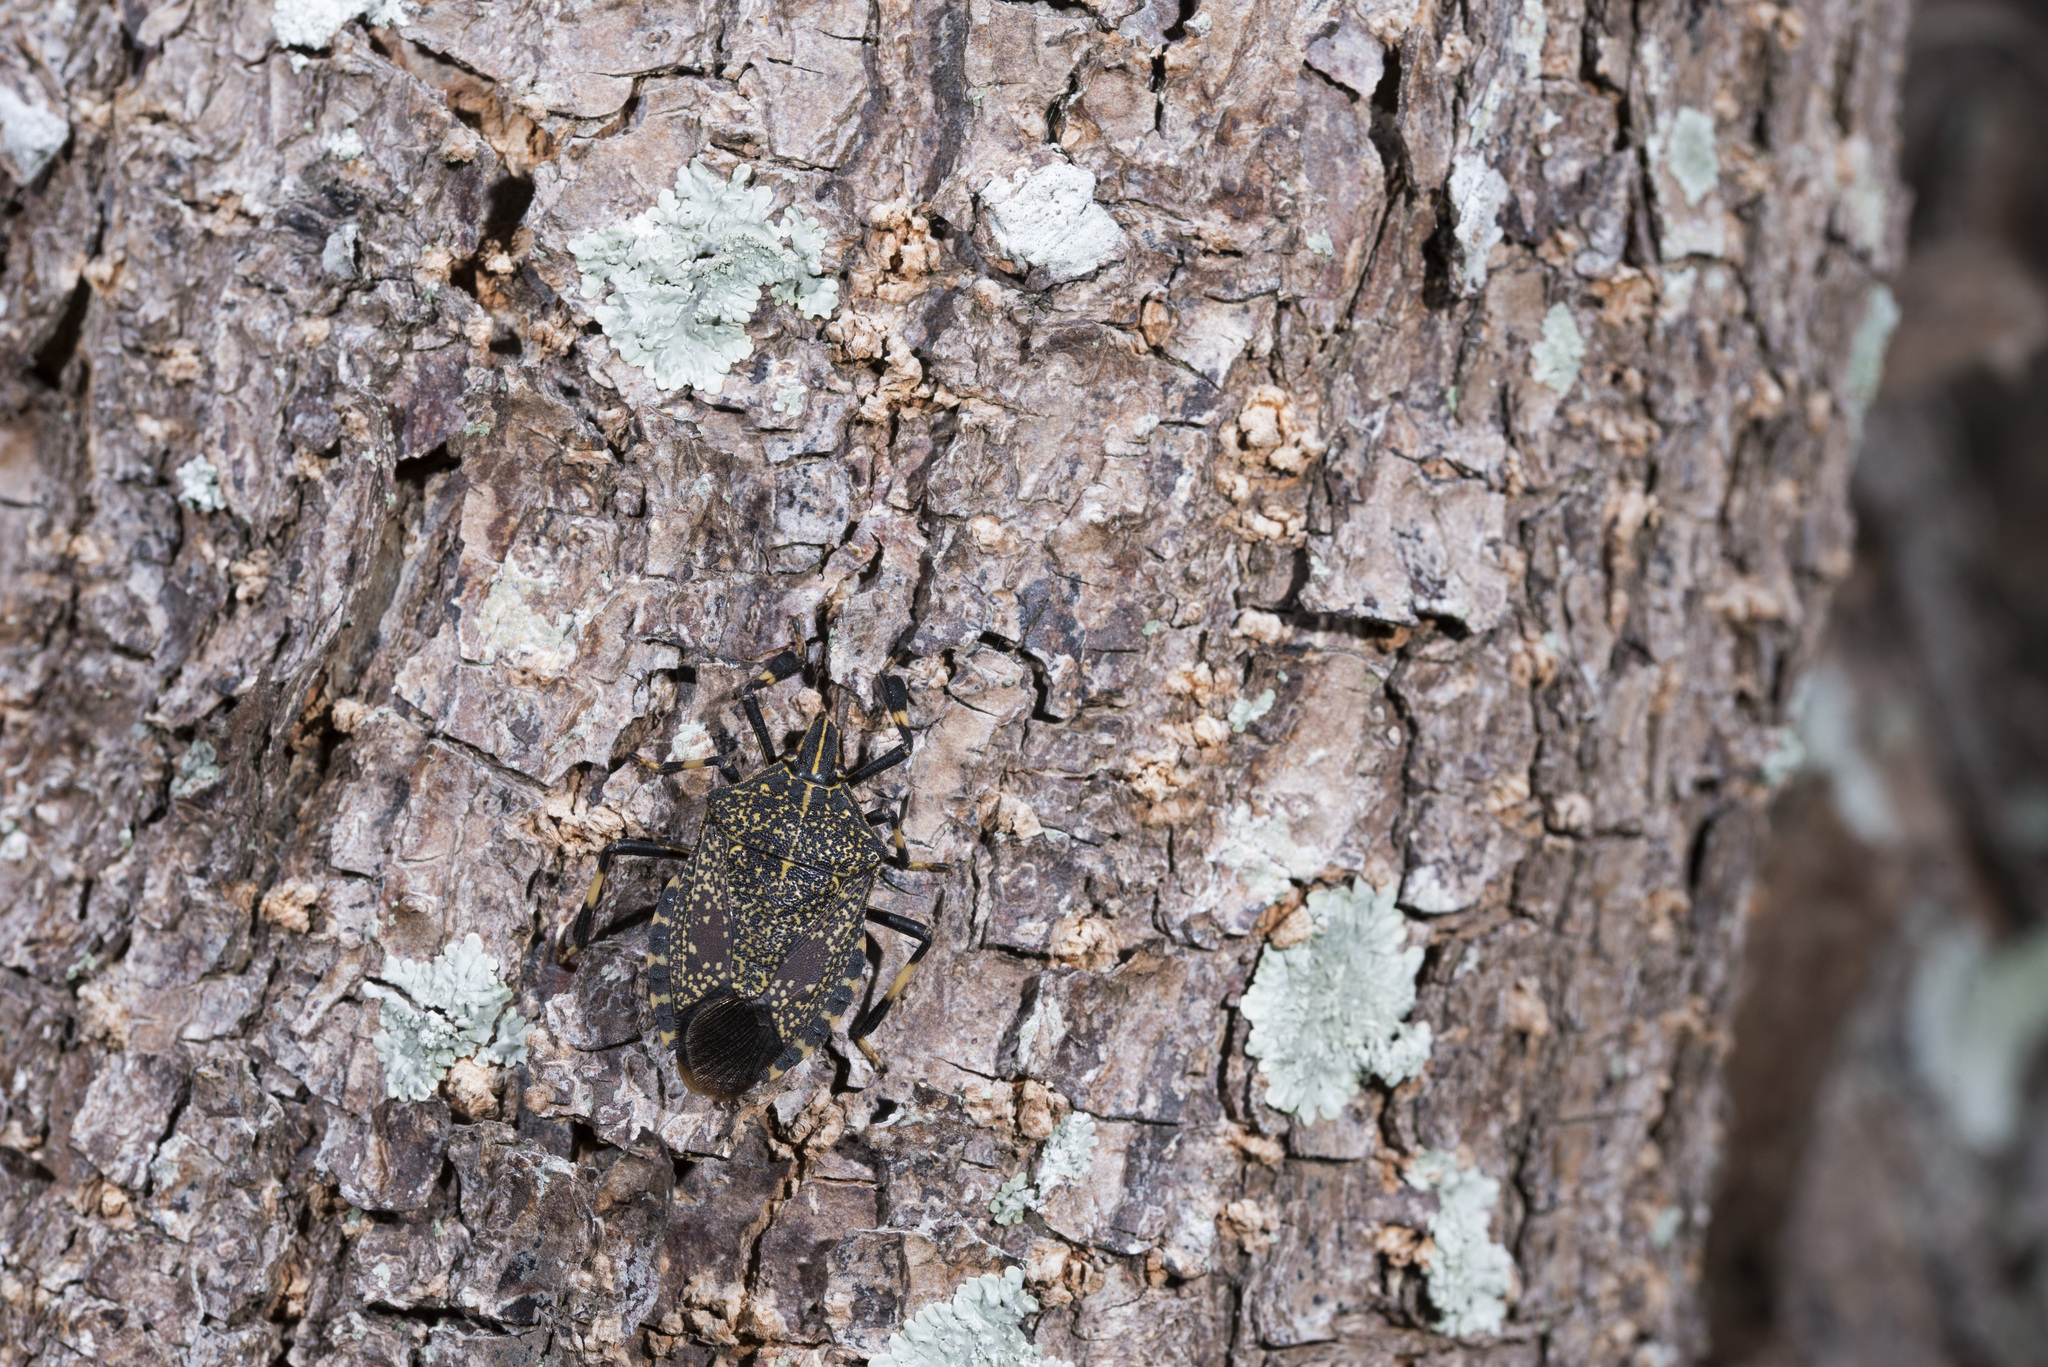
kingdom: Animalia
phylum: Arthropoda
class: Insecta
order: Hemiptera
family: Pentatomidae
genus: Erthesina
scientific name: Erthesina fullo
